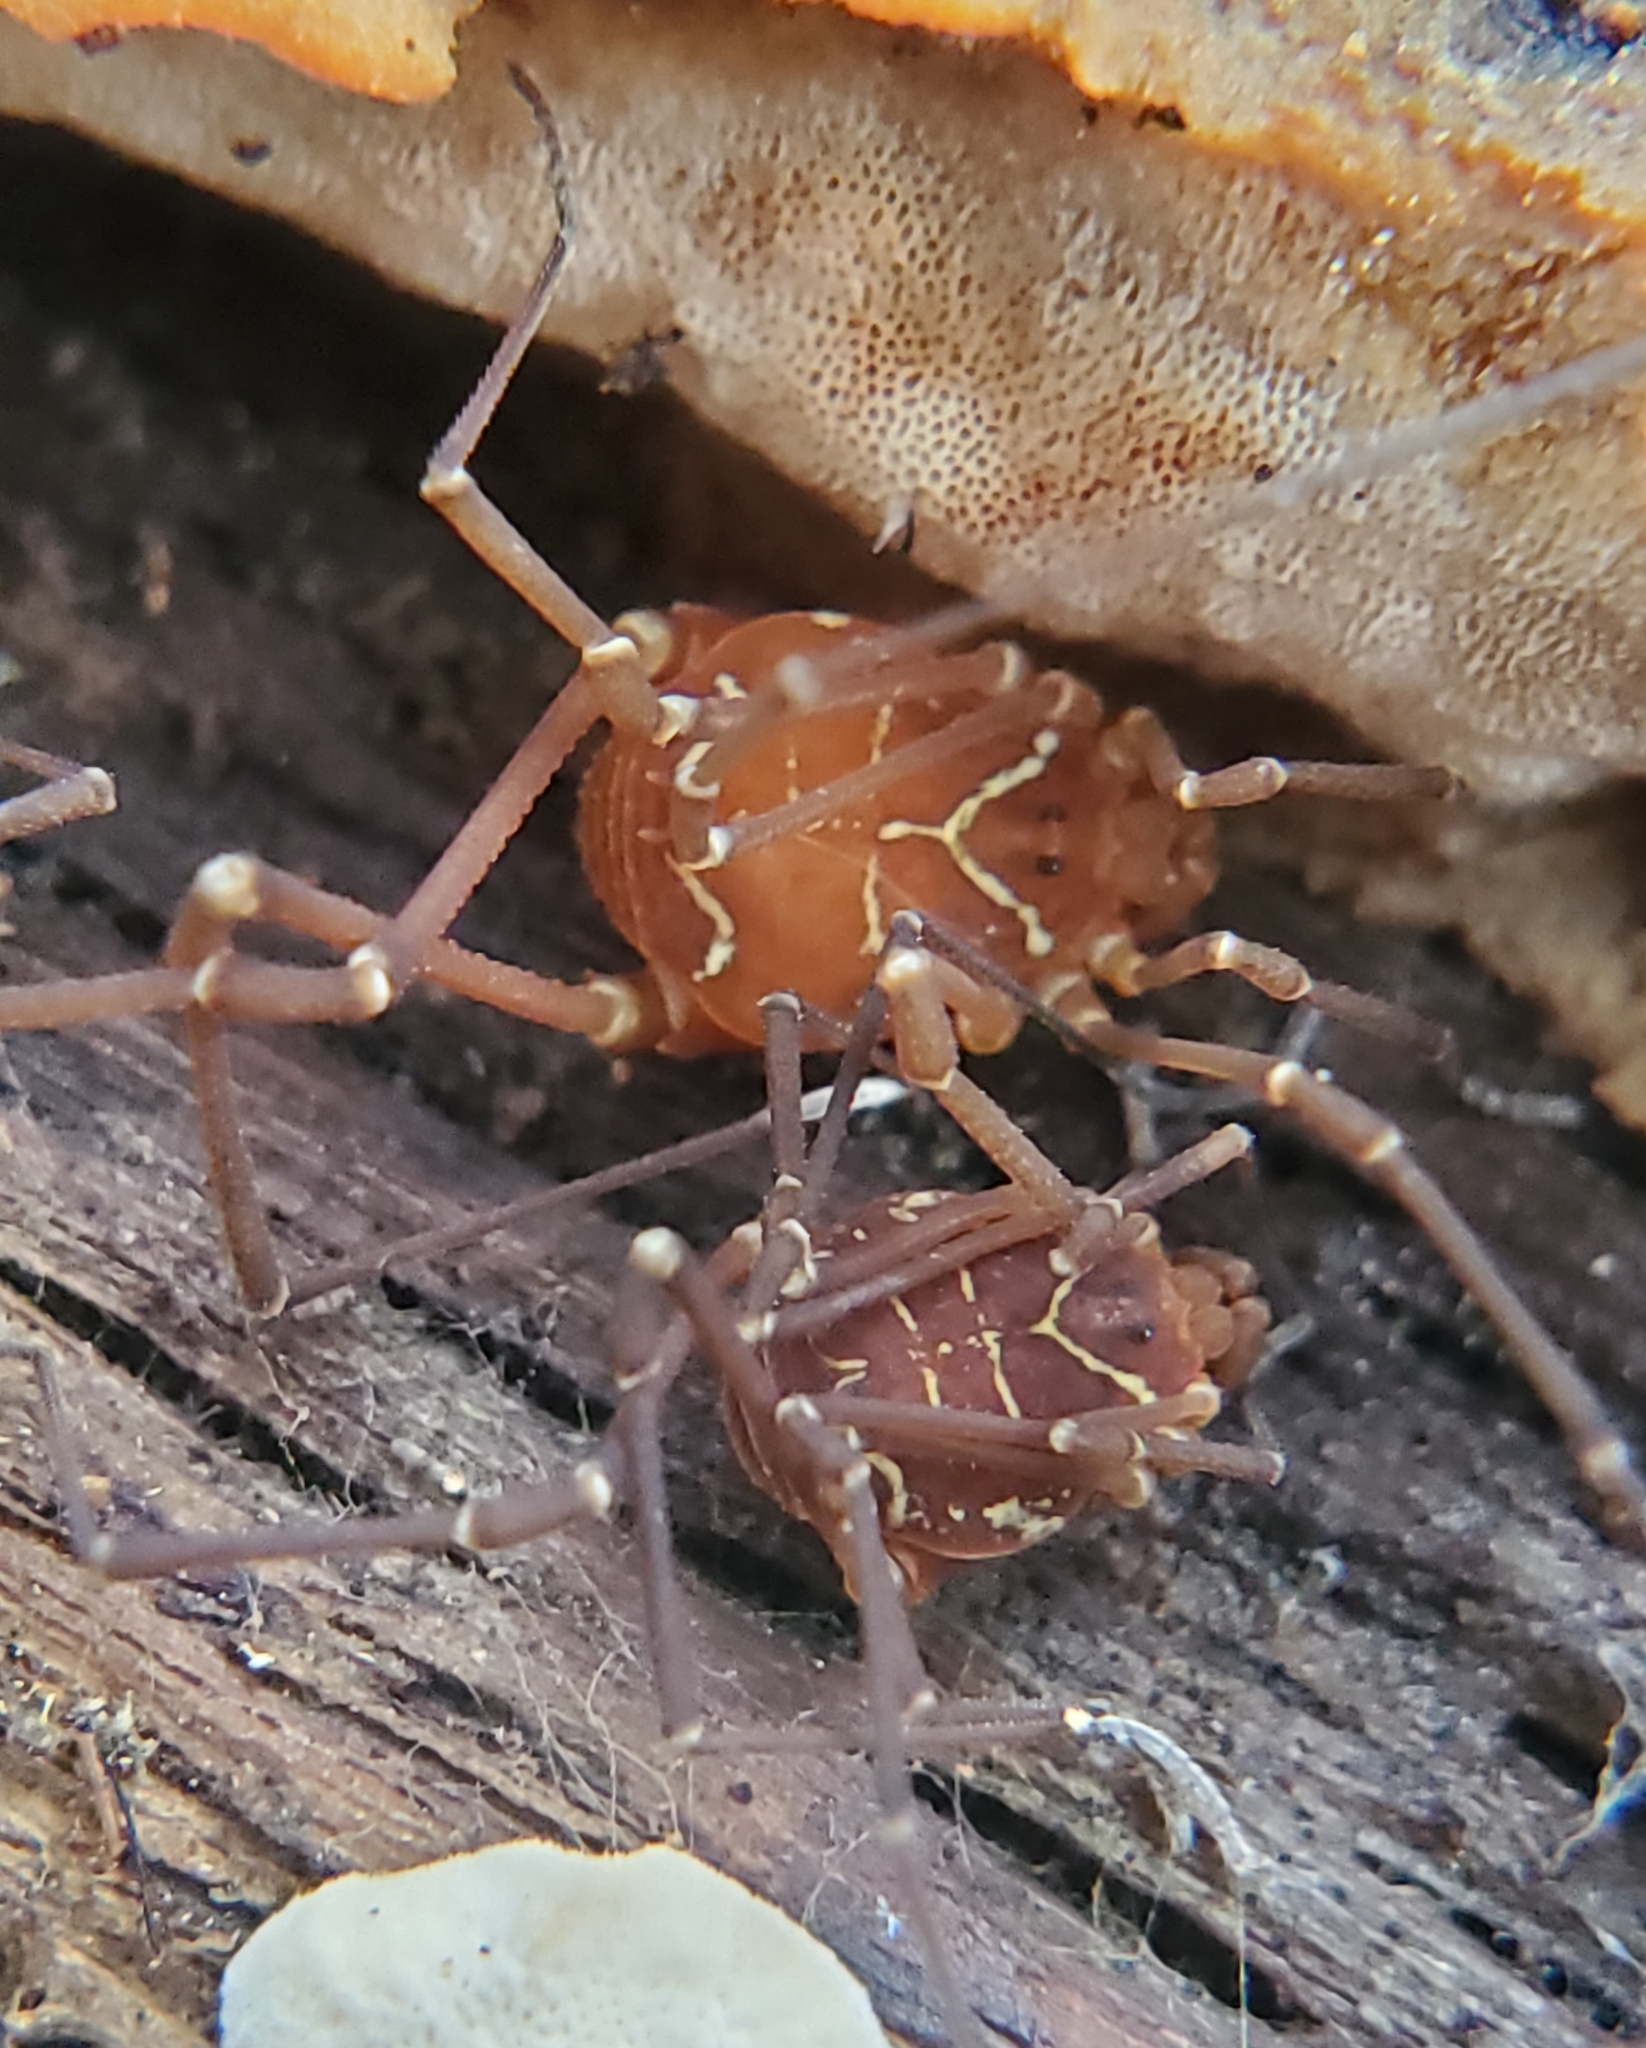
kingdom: Animalia
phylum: Arthropoda
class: Arachnida
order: Opiliones
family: Cosmetidae
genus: Libitioides
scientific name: Libitioides ornata
